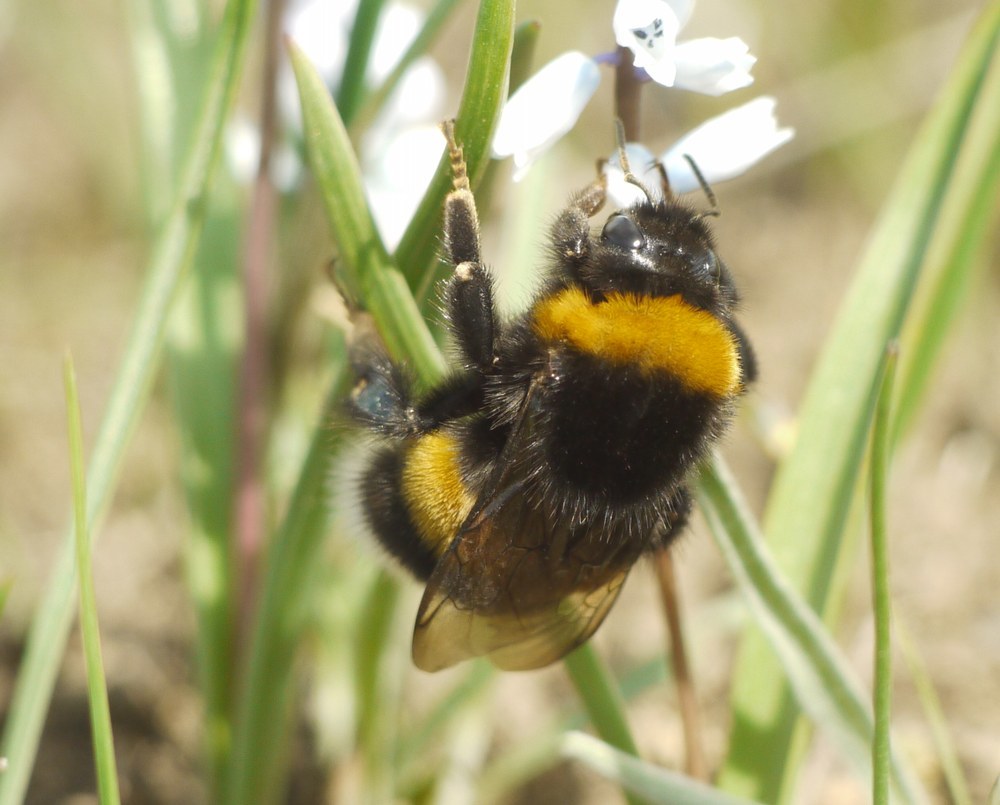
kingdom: Animalia
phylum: Arthropoda
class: Insecta
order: Hymenoptera
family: Apidae
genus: Bombus
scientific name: Bombus
